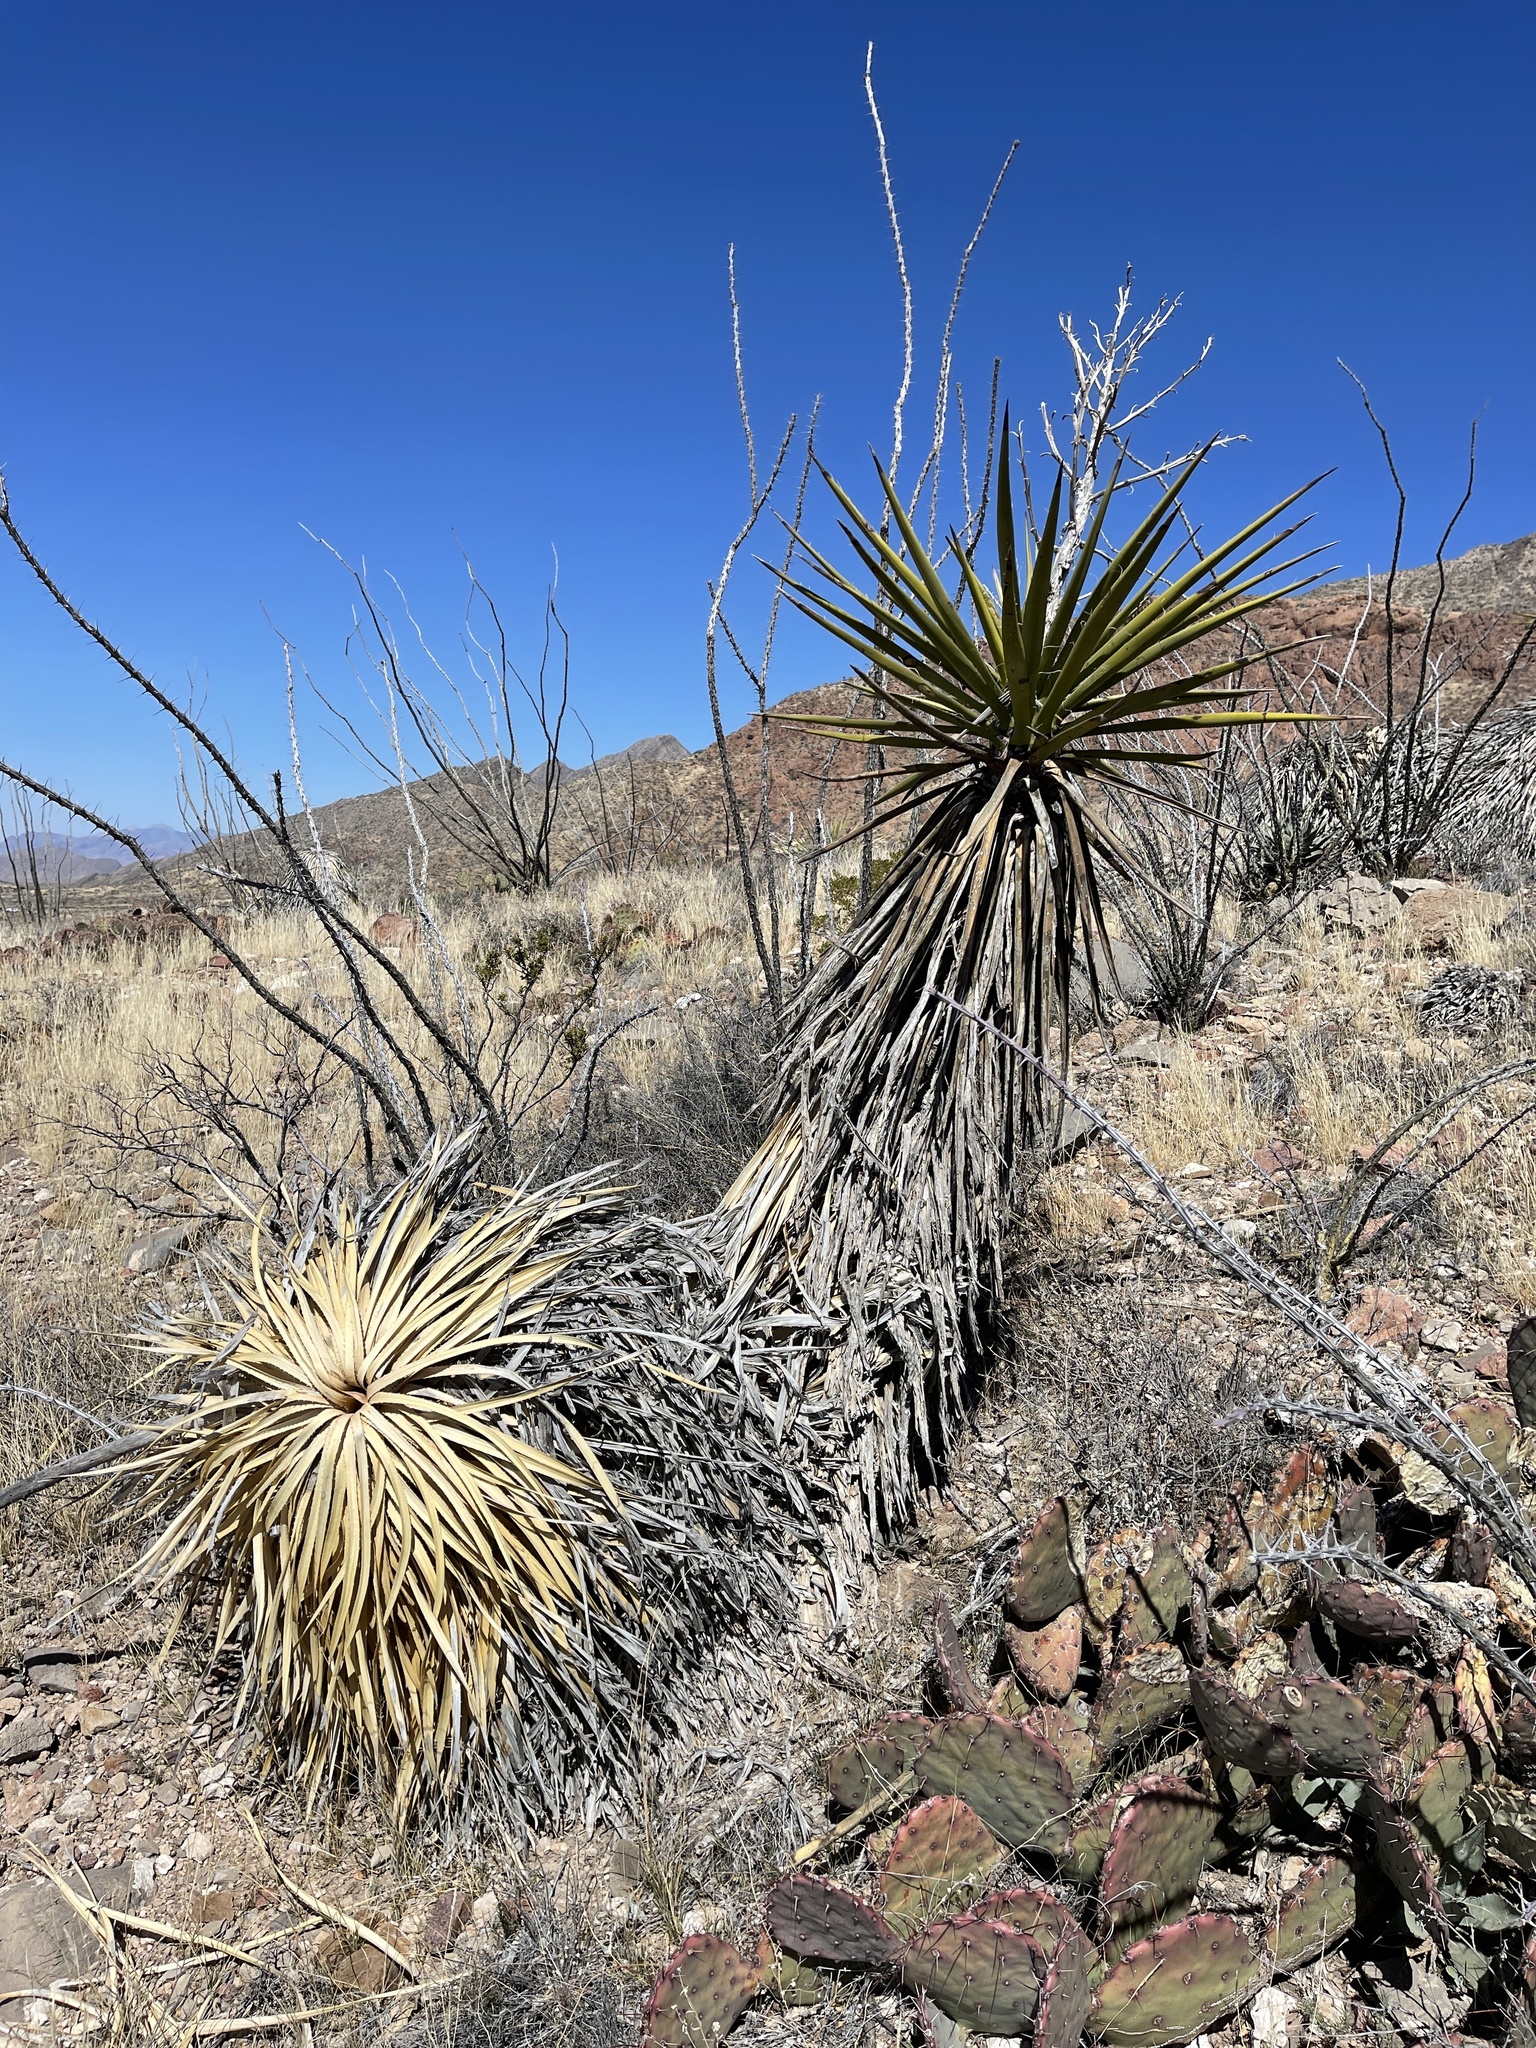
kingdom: Plantae
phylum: Tracheophyta
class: Liliopsida
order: Asparagales
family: Asparagaceae
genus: Yucca
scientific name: Yucca treculiana
